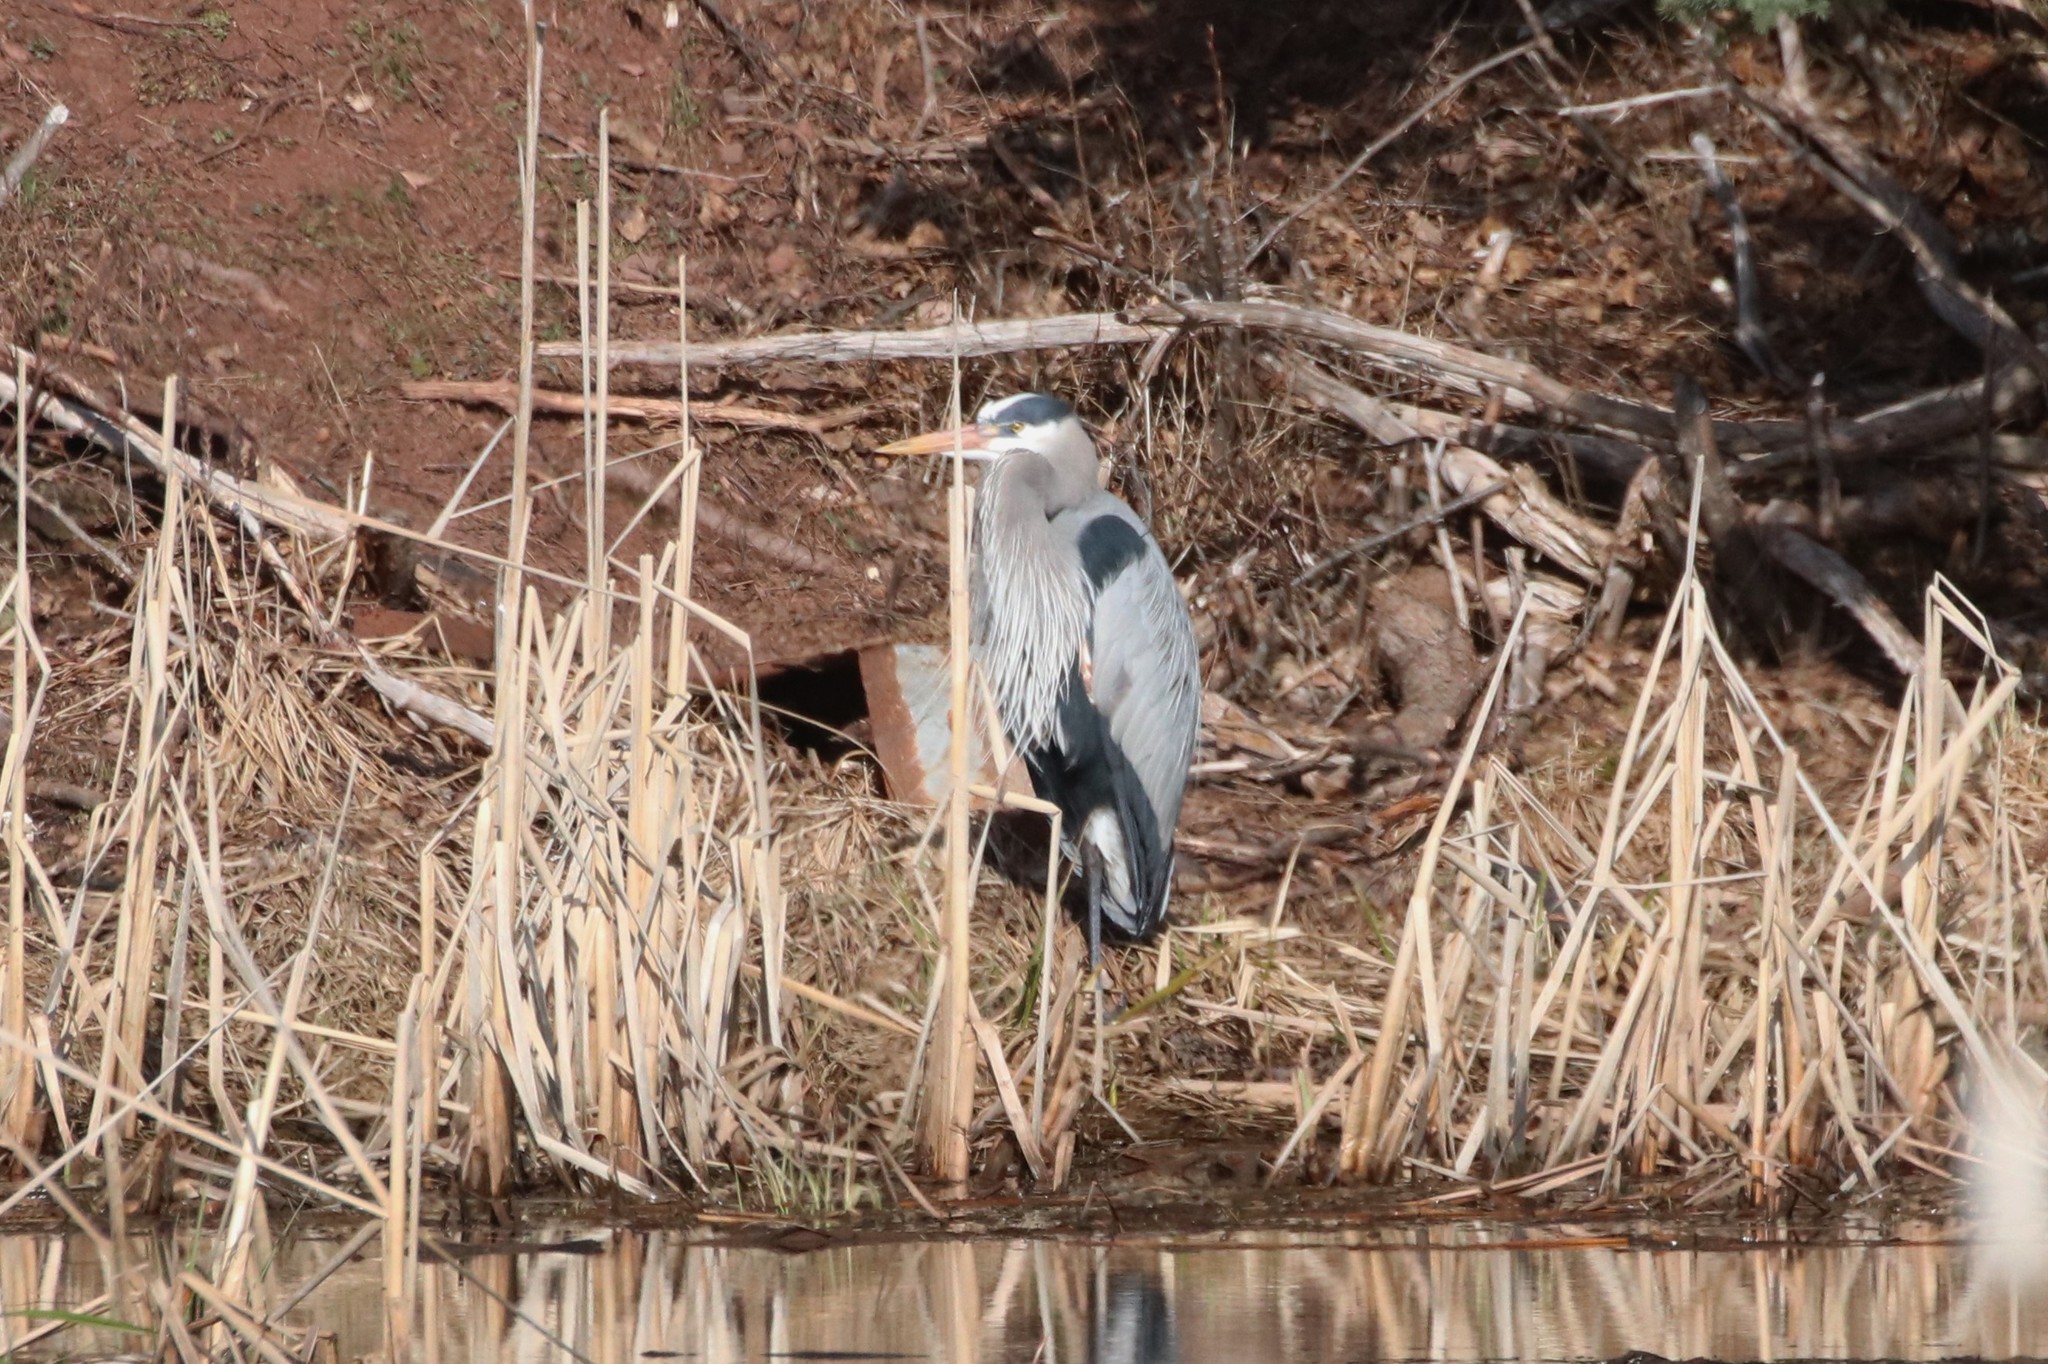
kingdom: Animalia
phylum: Chordata
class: Aves
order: Pelecaniformes
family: Ardeidae
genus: Ardea
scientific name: Ardea herodias
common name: Great blue heron
